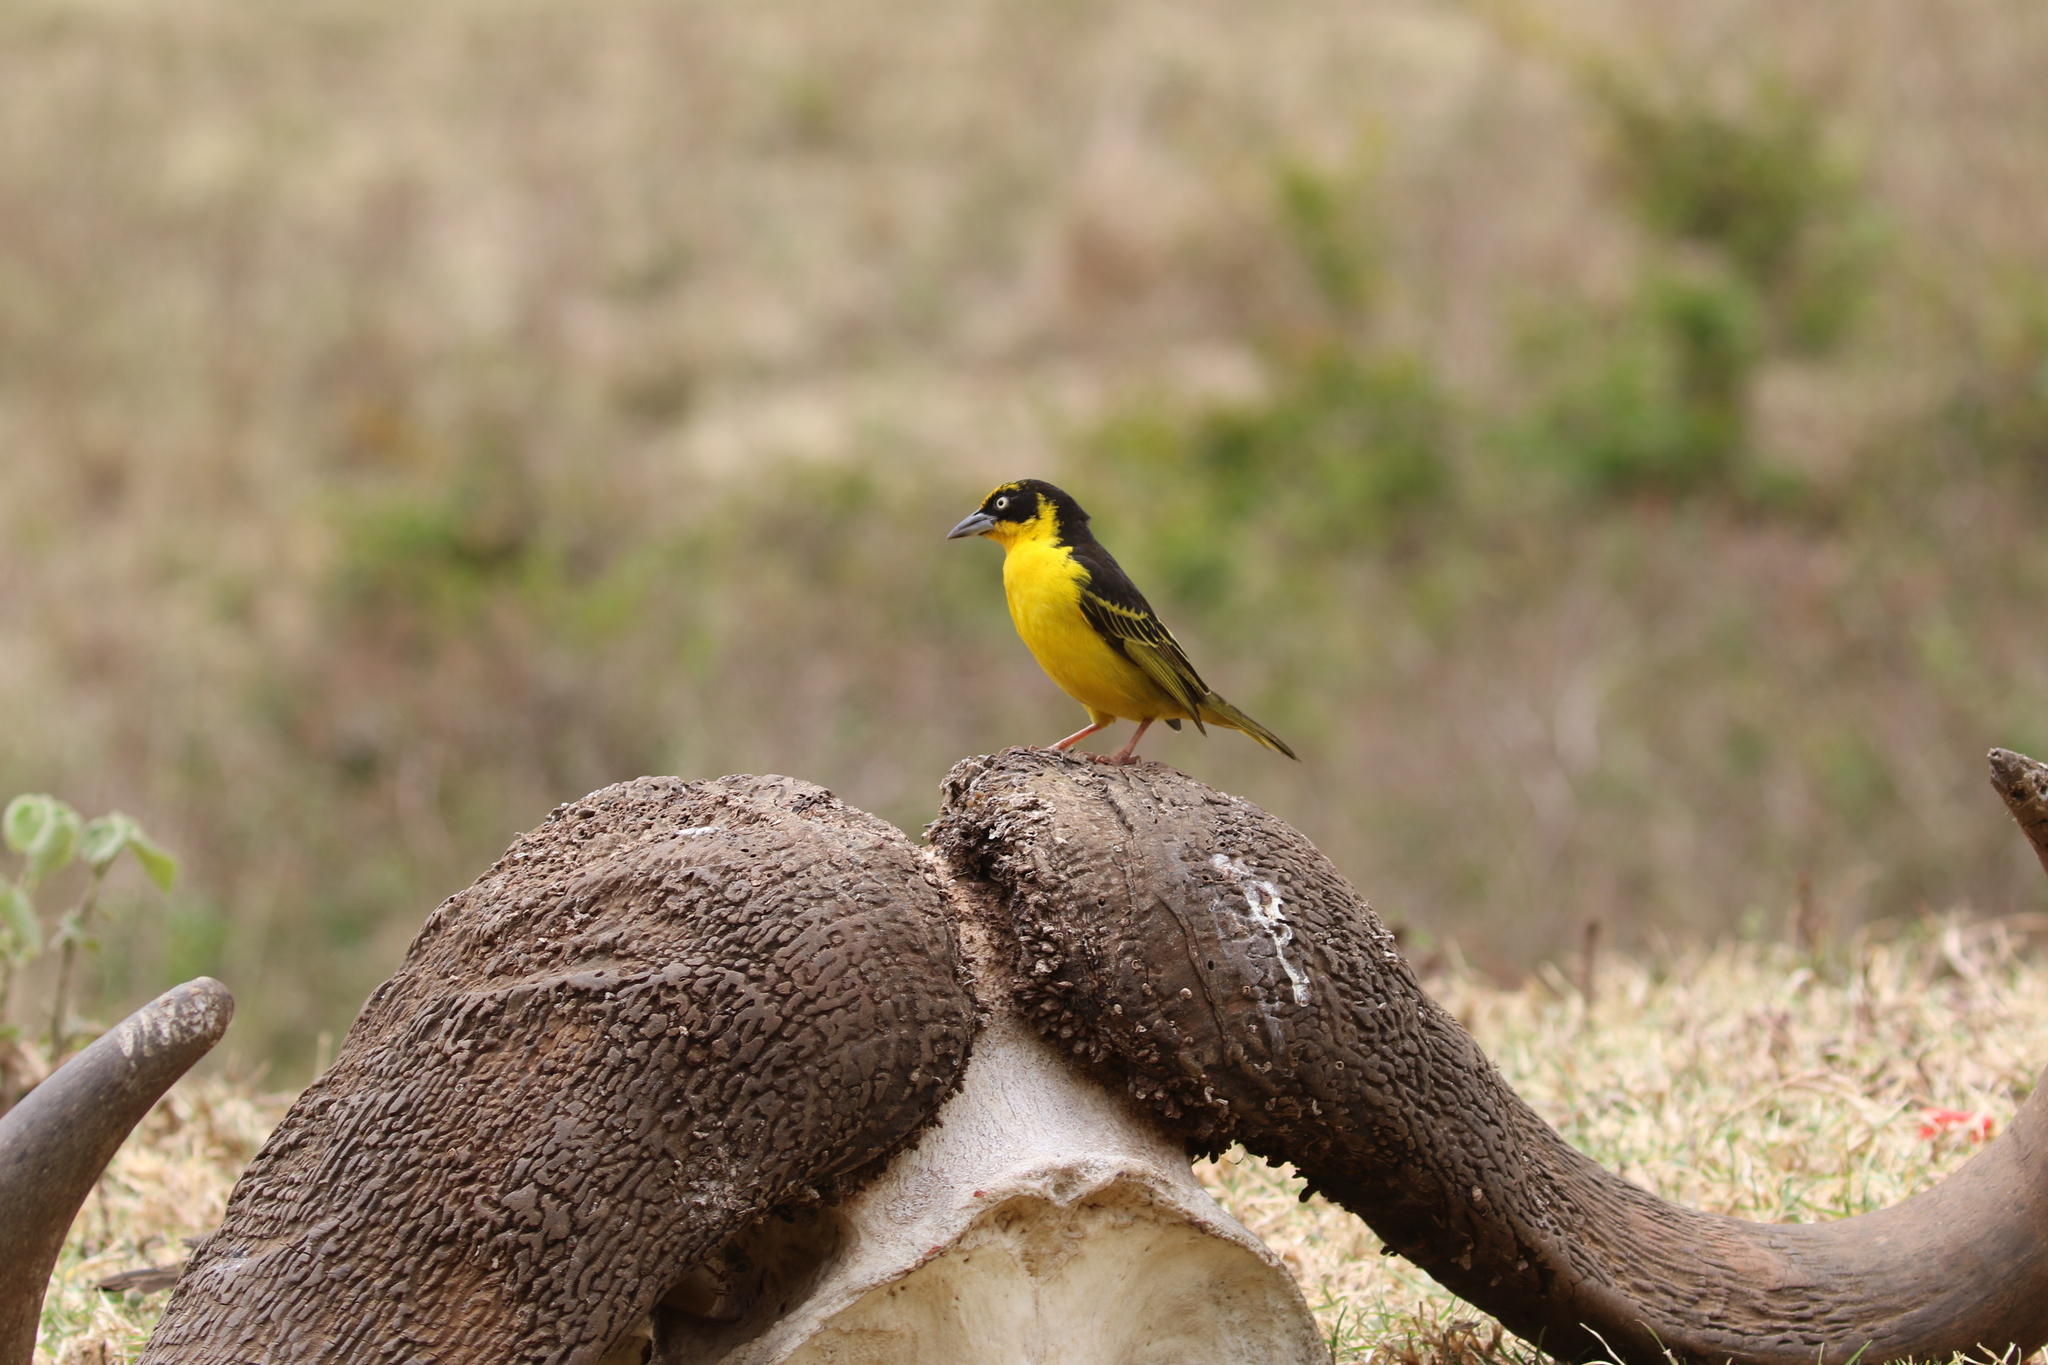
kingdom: Animalia
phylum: Chordata
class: Aves
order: Passeriformes
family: Ploceidae
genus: Ploceus
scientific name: Ploceus baglafecht
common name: Baglafecht weaver
